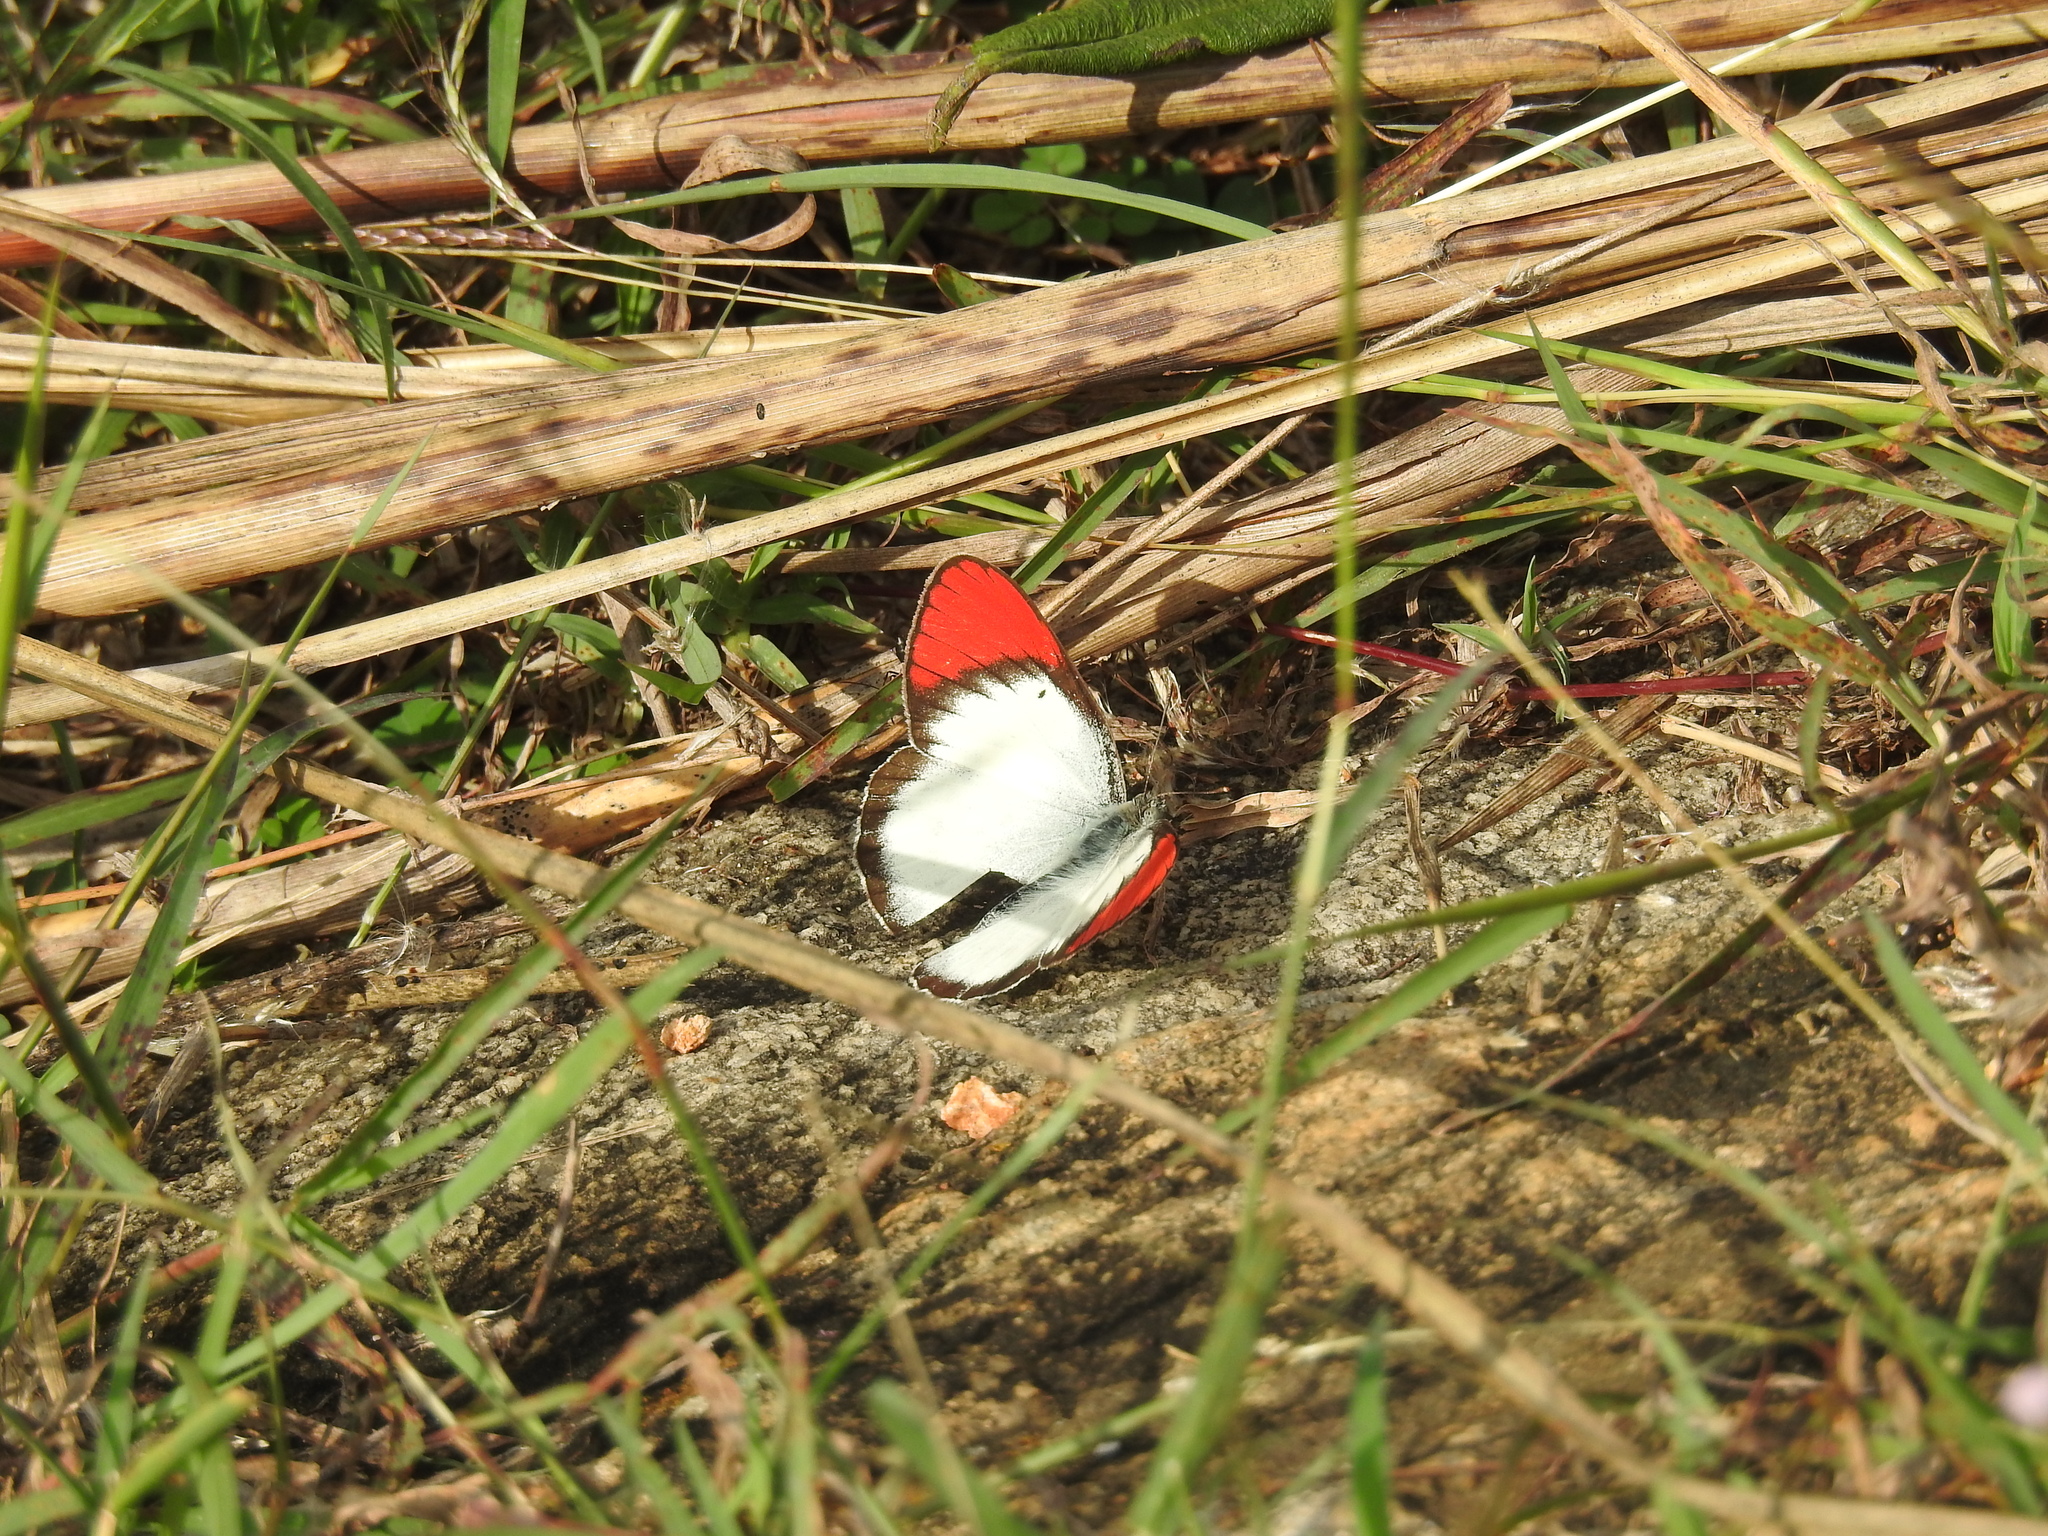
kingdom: Animalia
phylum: Arthropoda
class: Insecta
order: Lepidoptera
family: Pieridae
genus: Colotis
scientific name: Colotis danae
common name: Crimson tip
